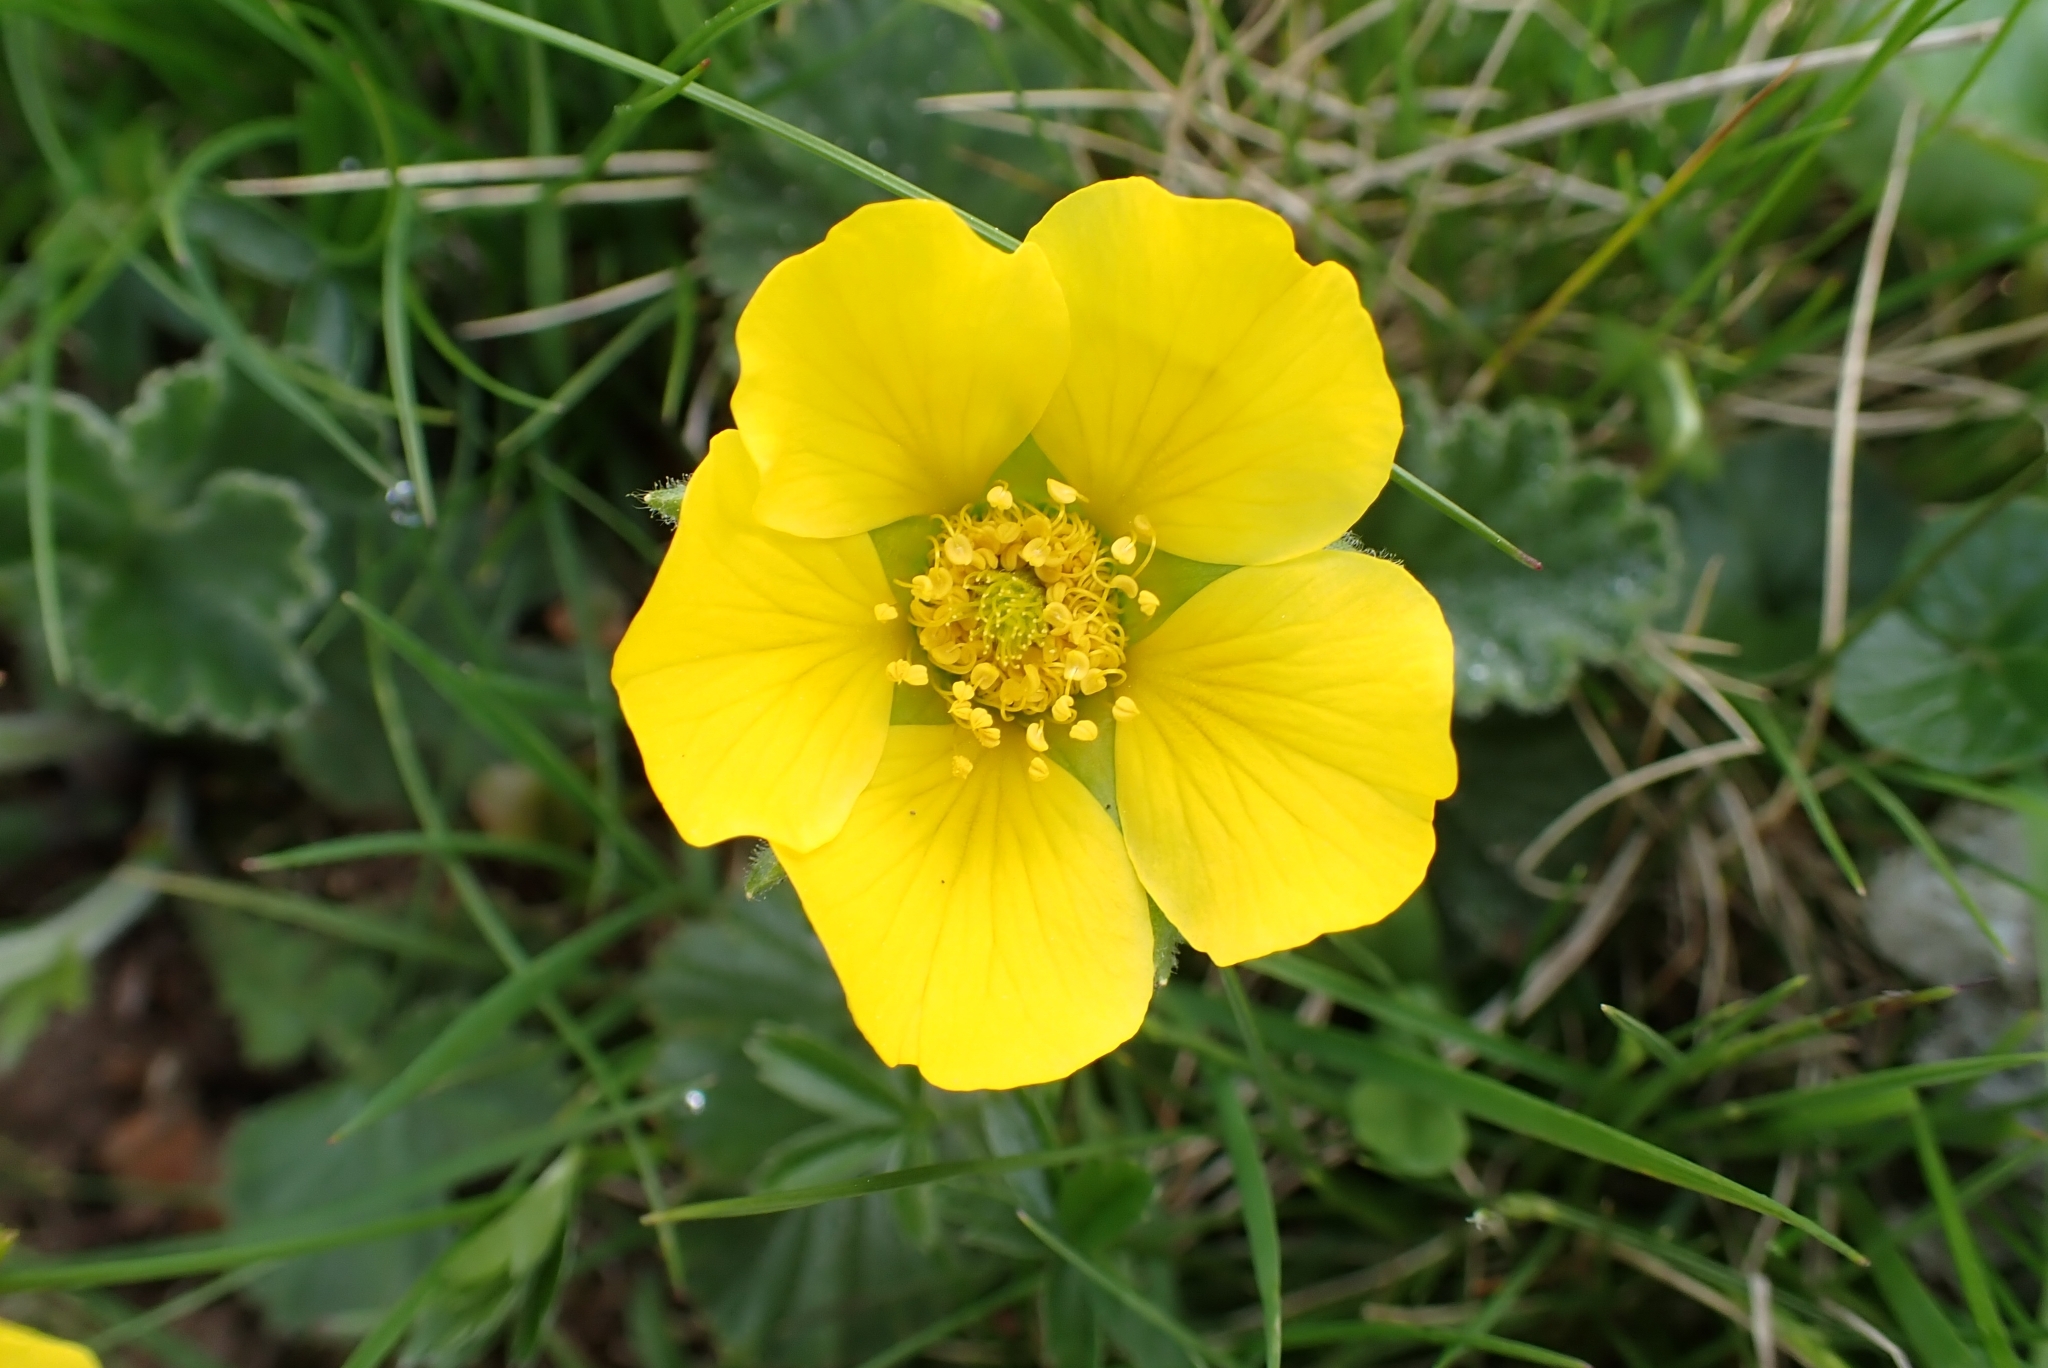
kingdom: Plantae
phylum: Tracheophyta
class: Magnoliopsida
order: Rosales
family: Rosaceae
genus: Geum
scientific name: Geum montanum
